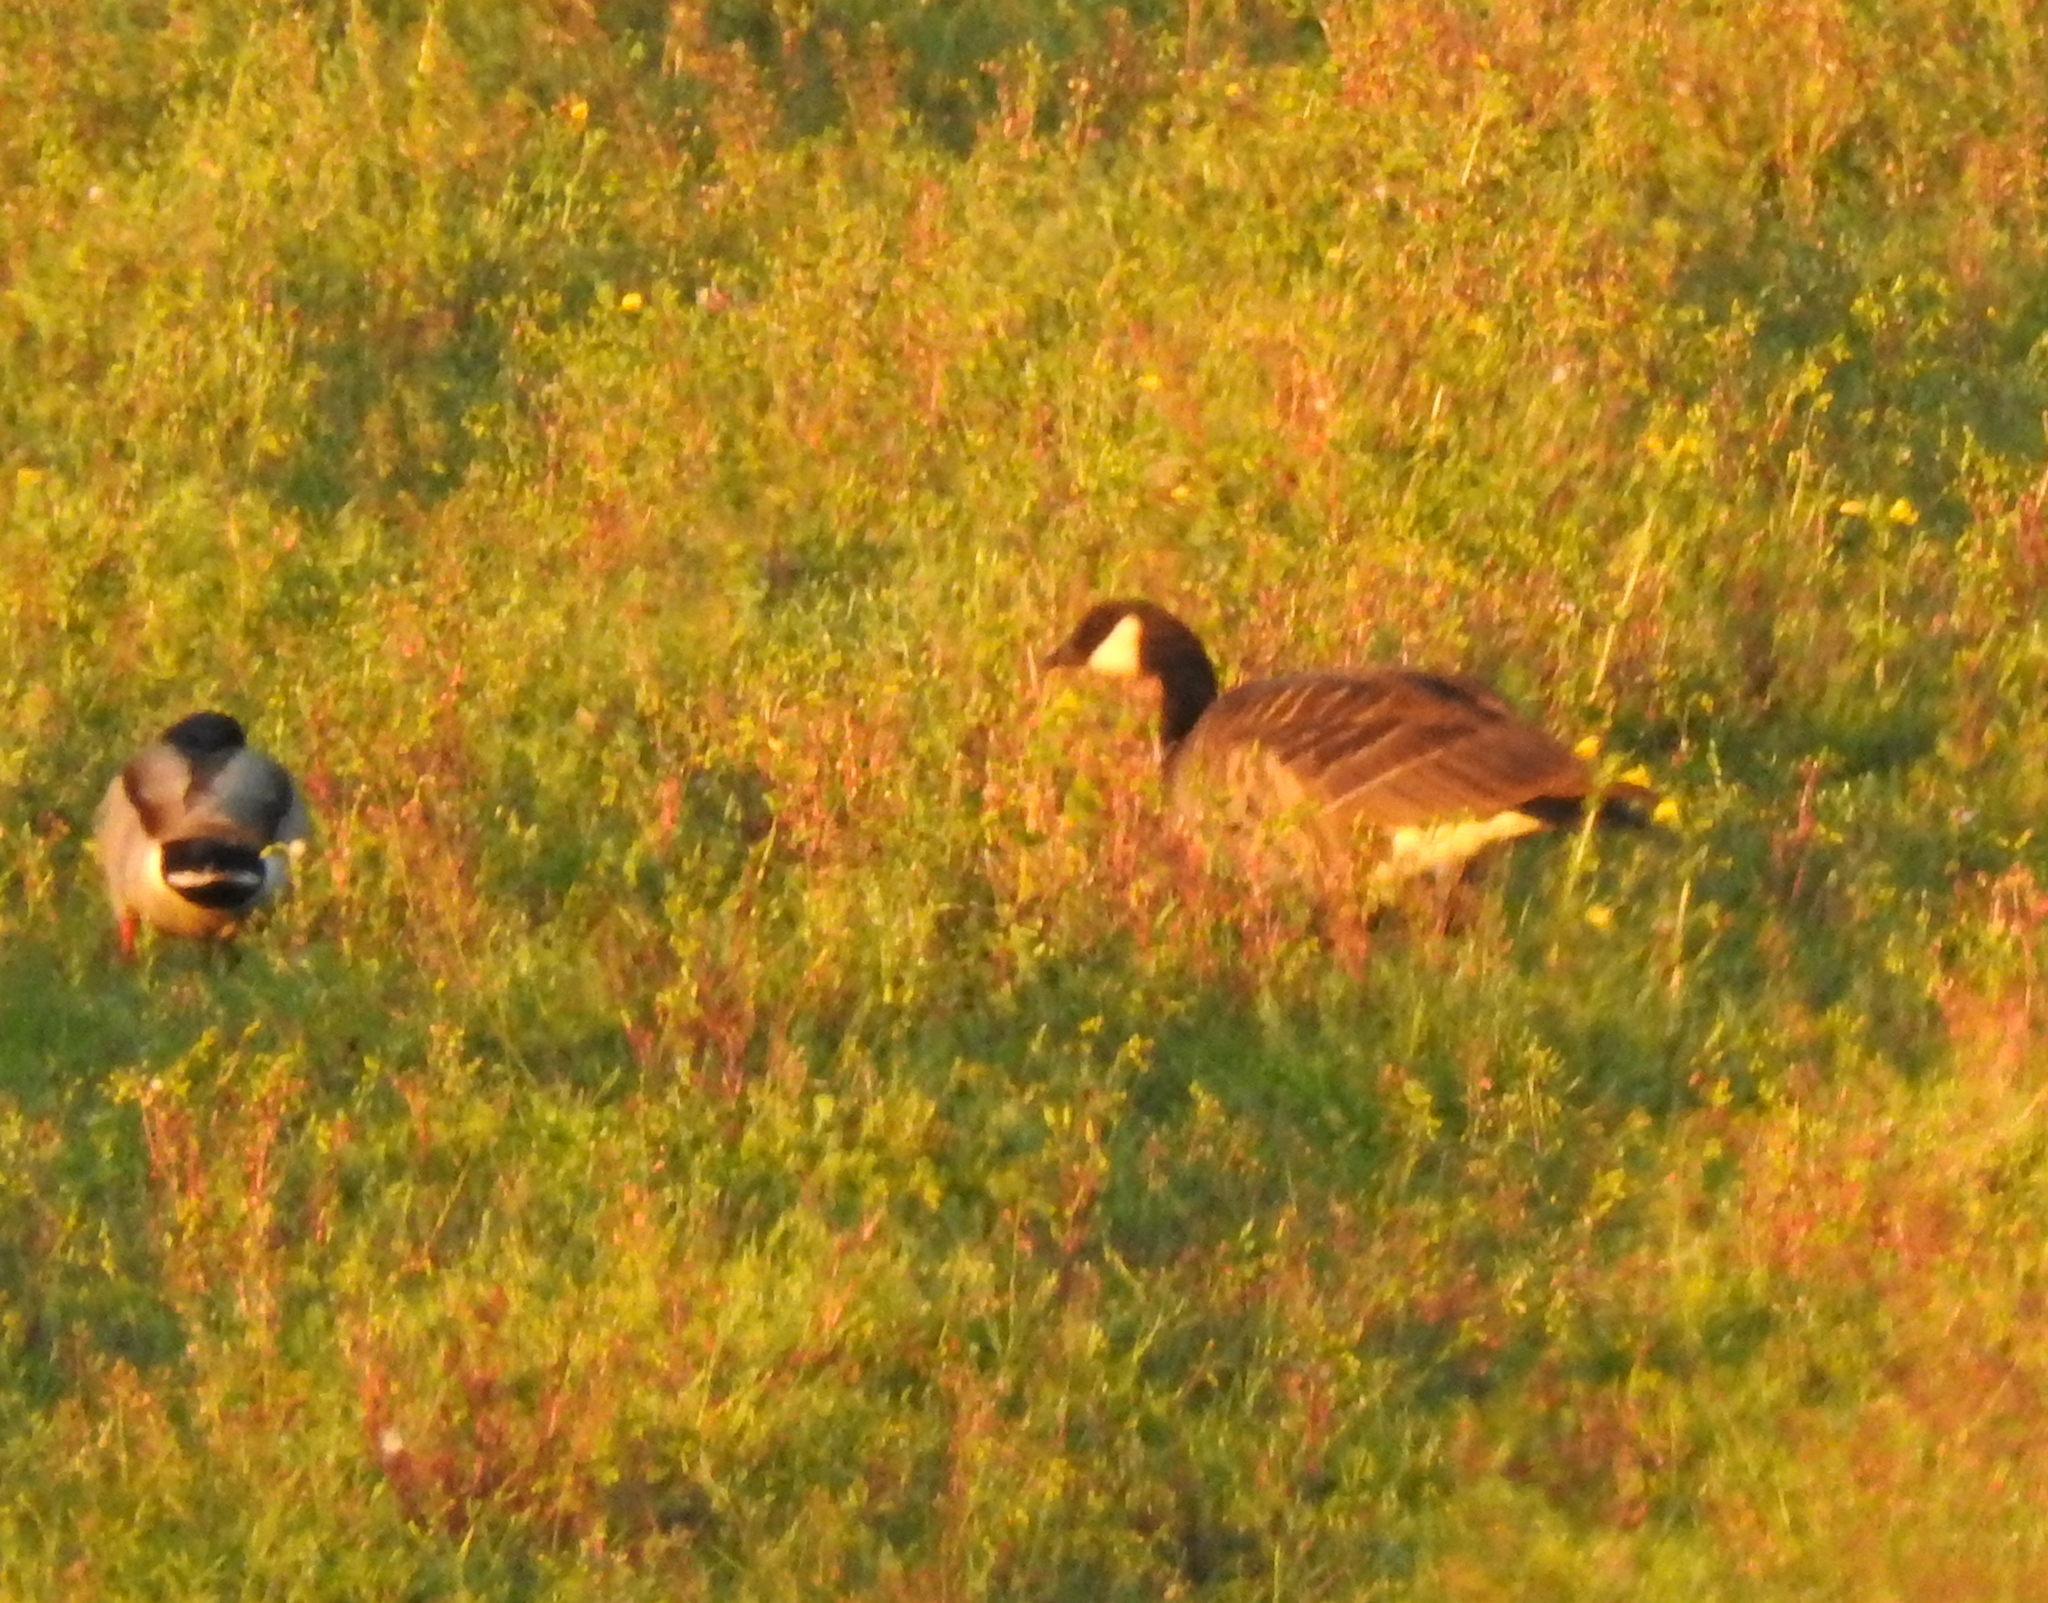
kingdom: Animalia
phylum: Chordata
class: Aves
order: Anseriformes
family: Anatidae
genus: Branta
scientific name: Branta hutchinsii
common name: Cackling goose
